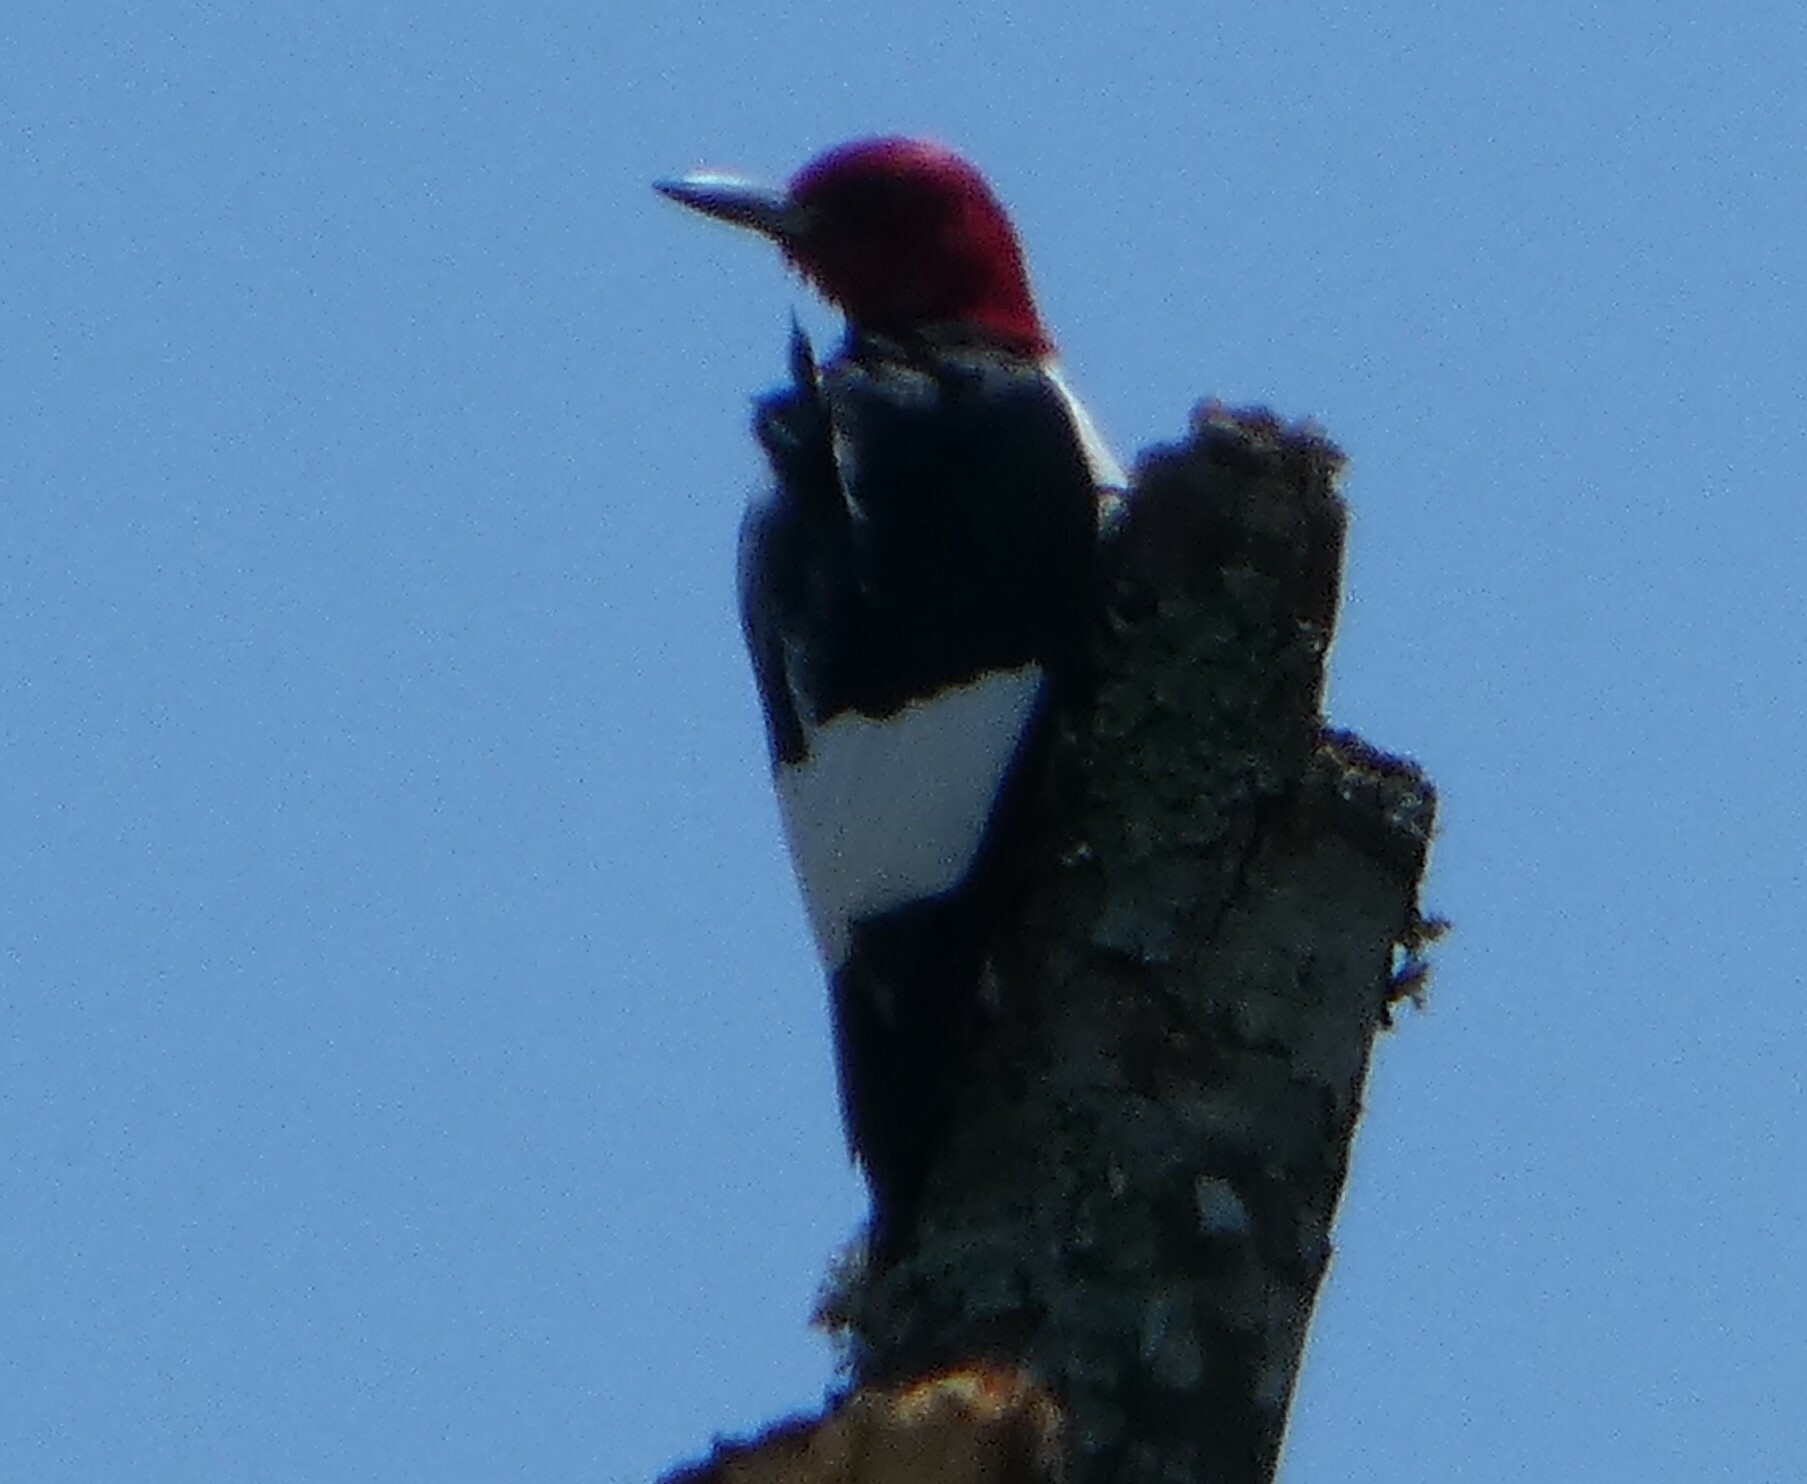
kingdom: Animalia
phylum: Chordata
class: Aves
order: Piciformes
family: Picidae
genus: Melanerpes
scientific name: Melanerpes erythrocephalus
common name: Red-headed woodpecker
